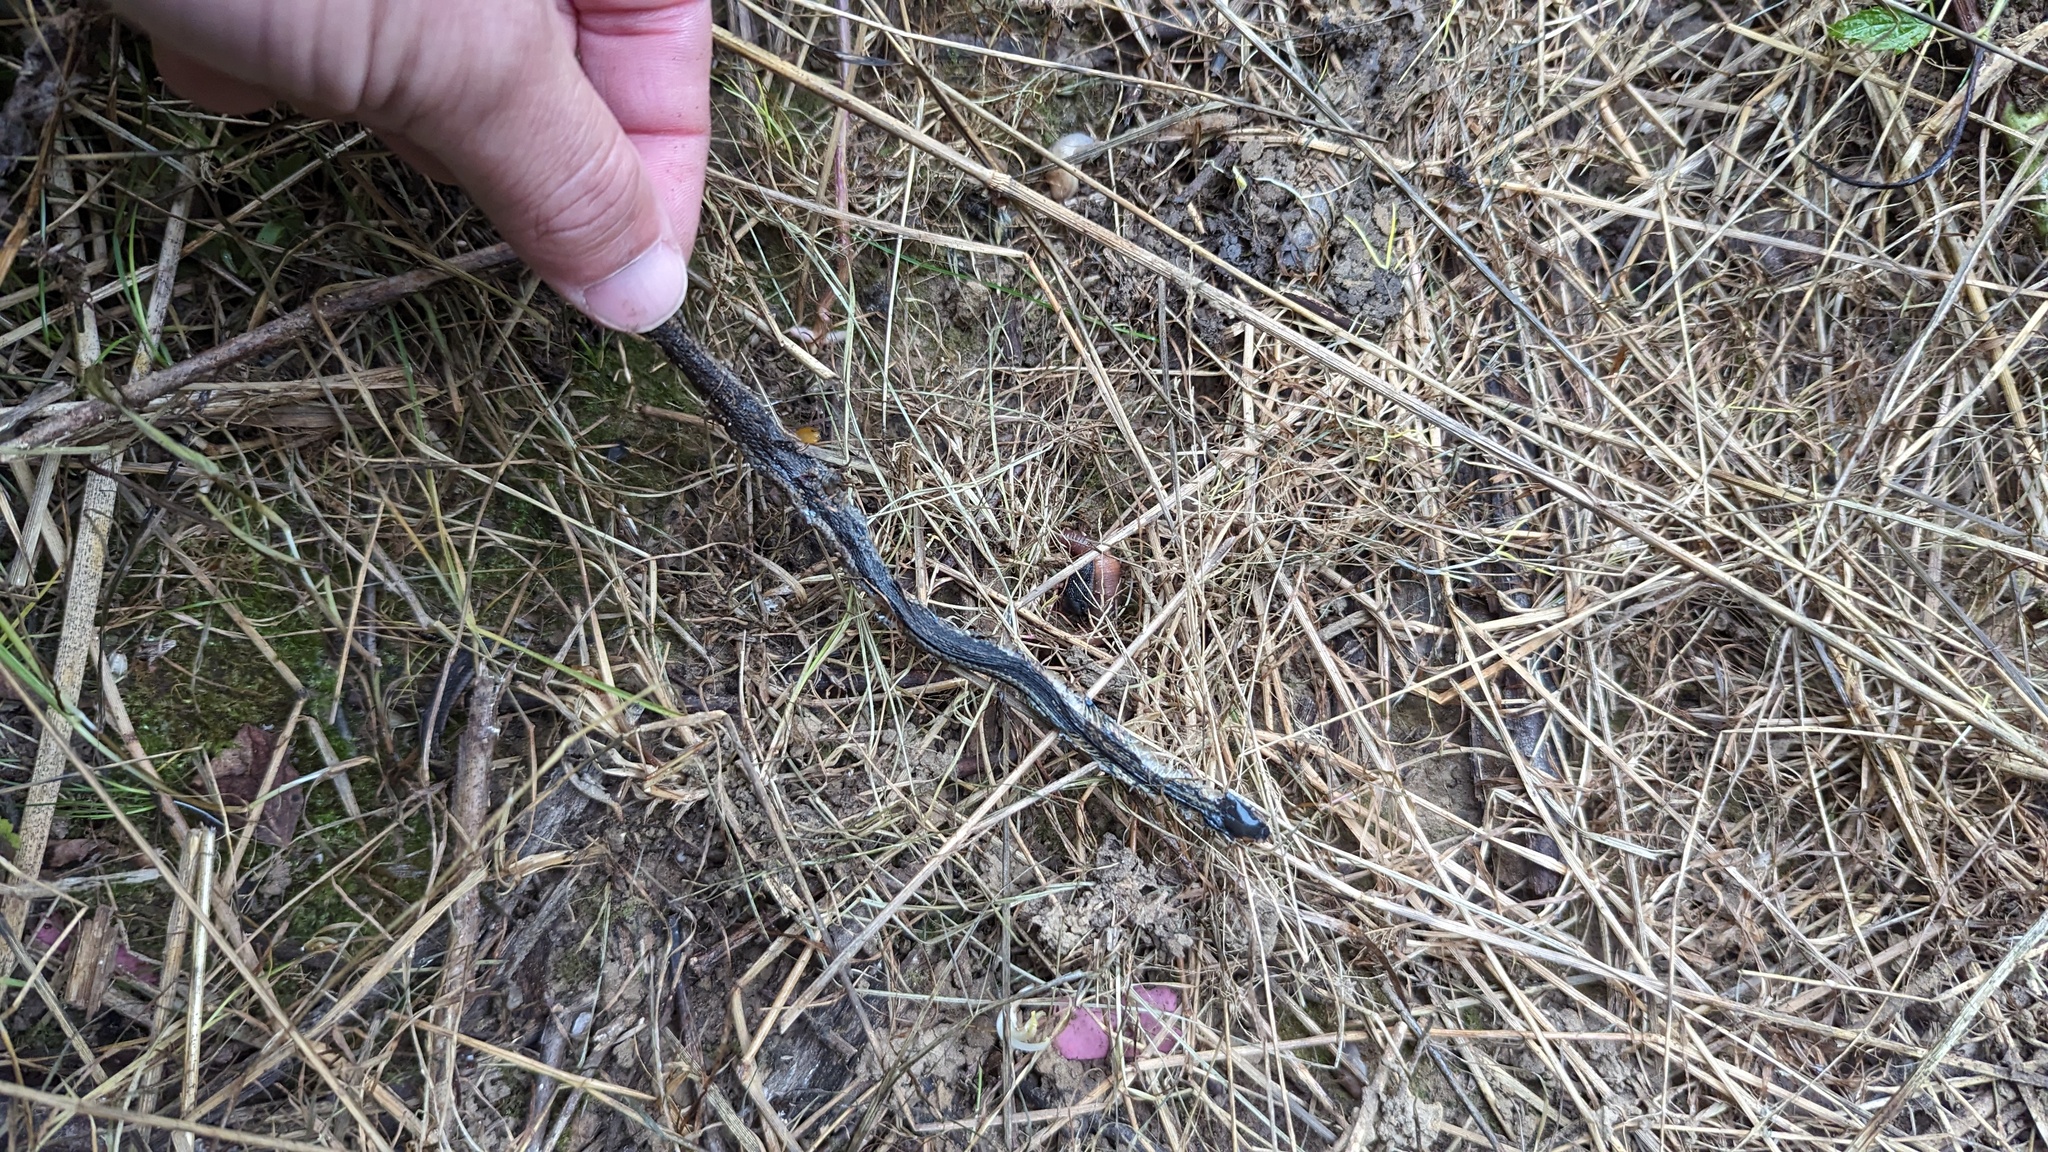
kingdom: Animalia
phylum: Chordata
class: Squamata
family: Colubridae
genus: Thamnophis
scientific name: Thamnophis sirtalis
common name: Common garter snake
